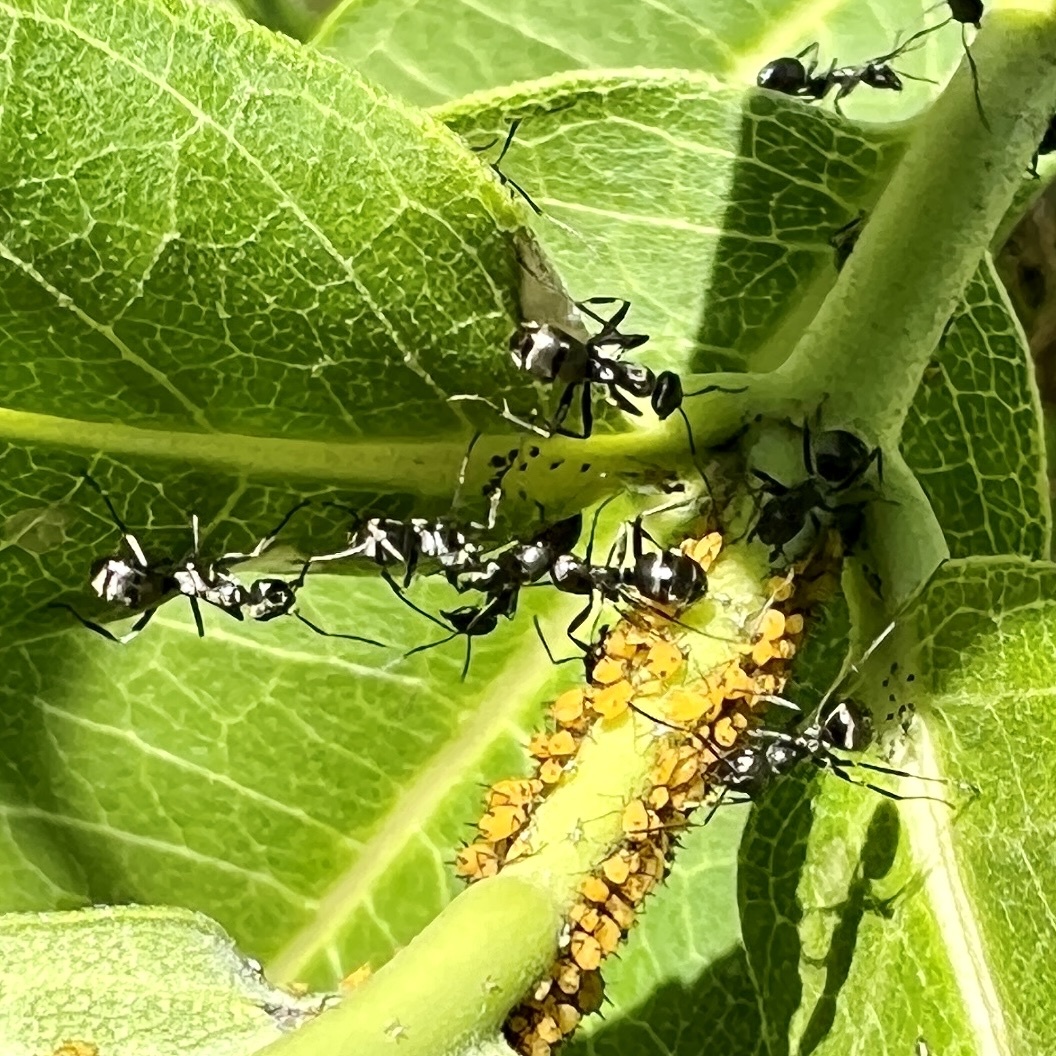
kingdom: Animalia
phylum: Arthropoda
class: Insecta
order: Hymenoptera
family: Formicidae
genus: Formica
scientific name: Formica
